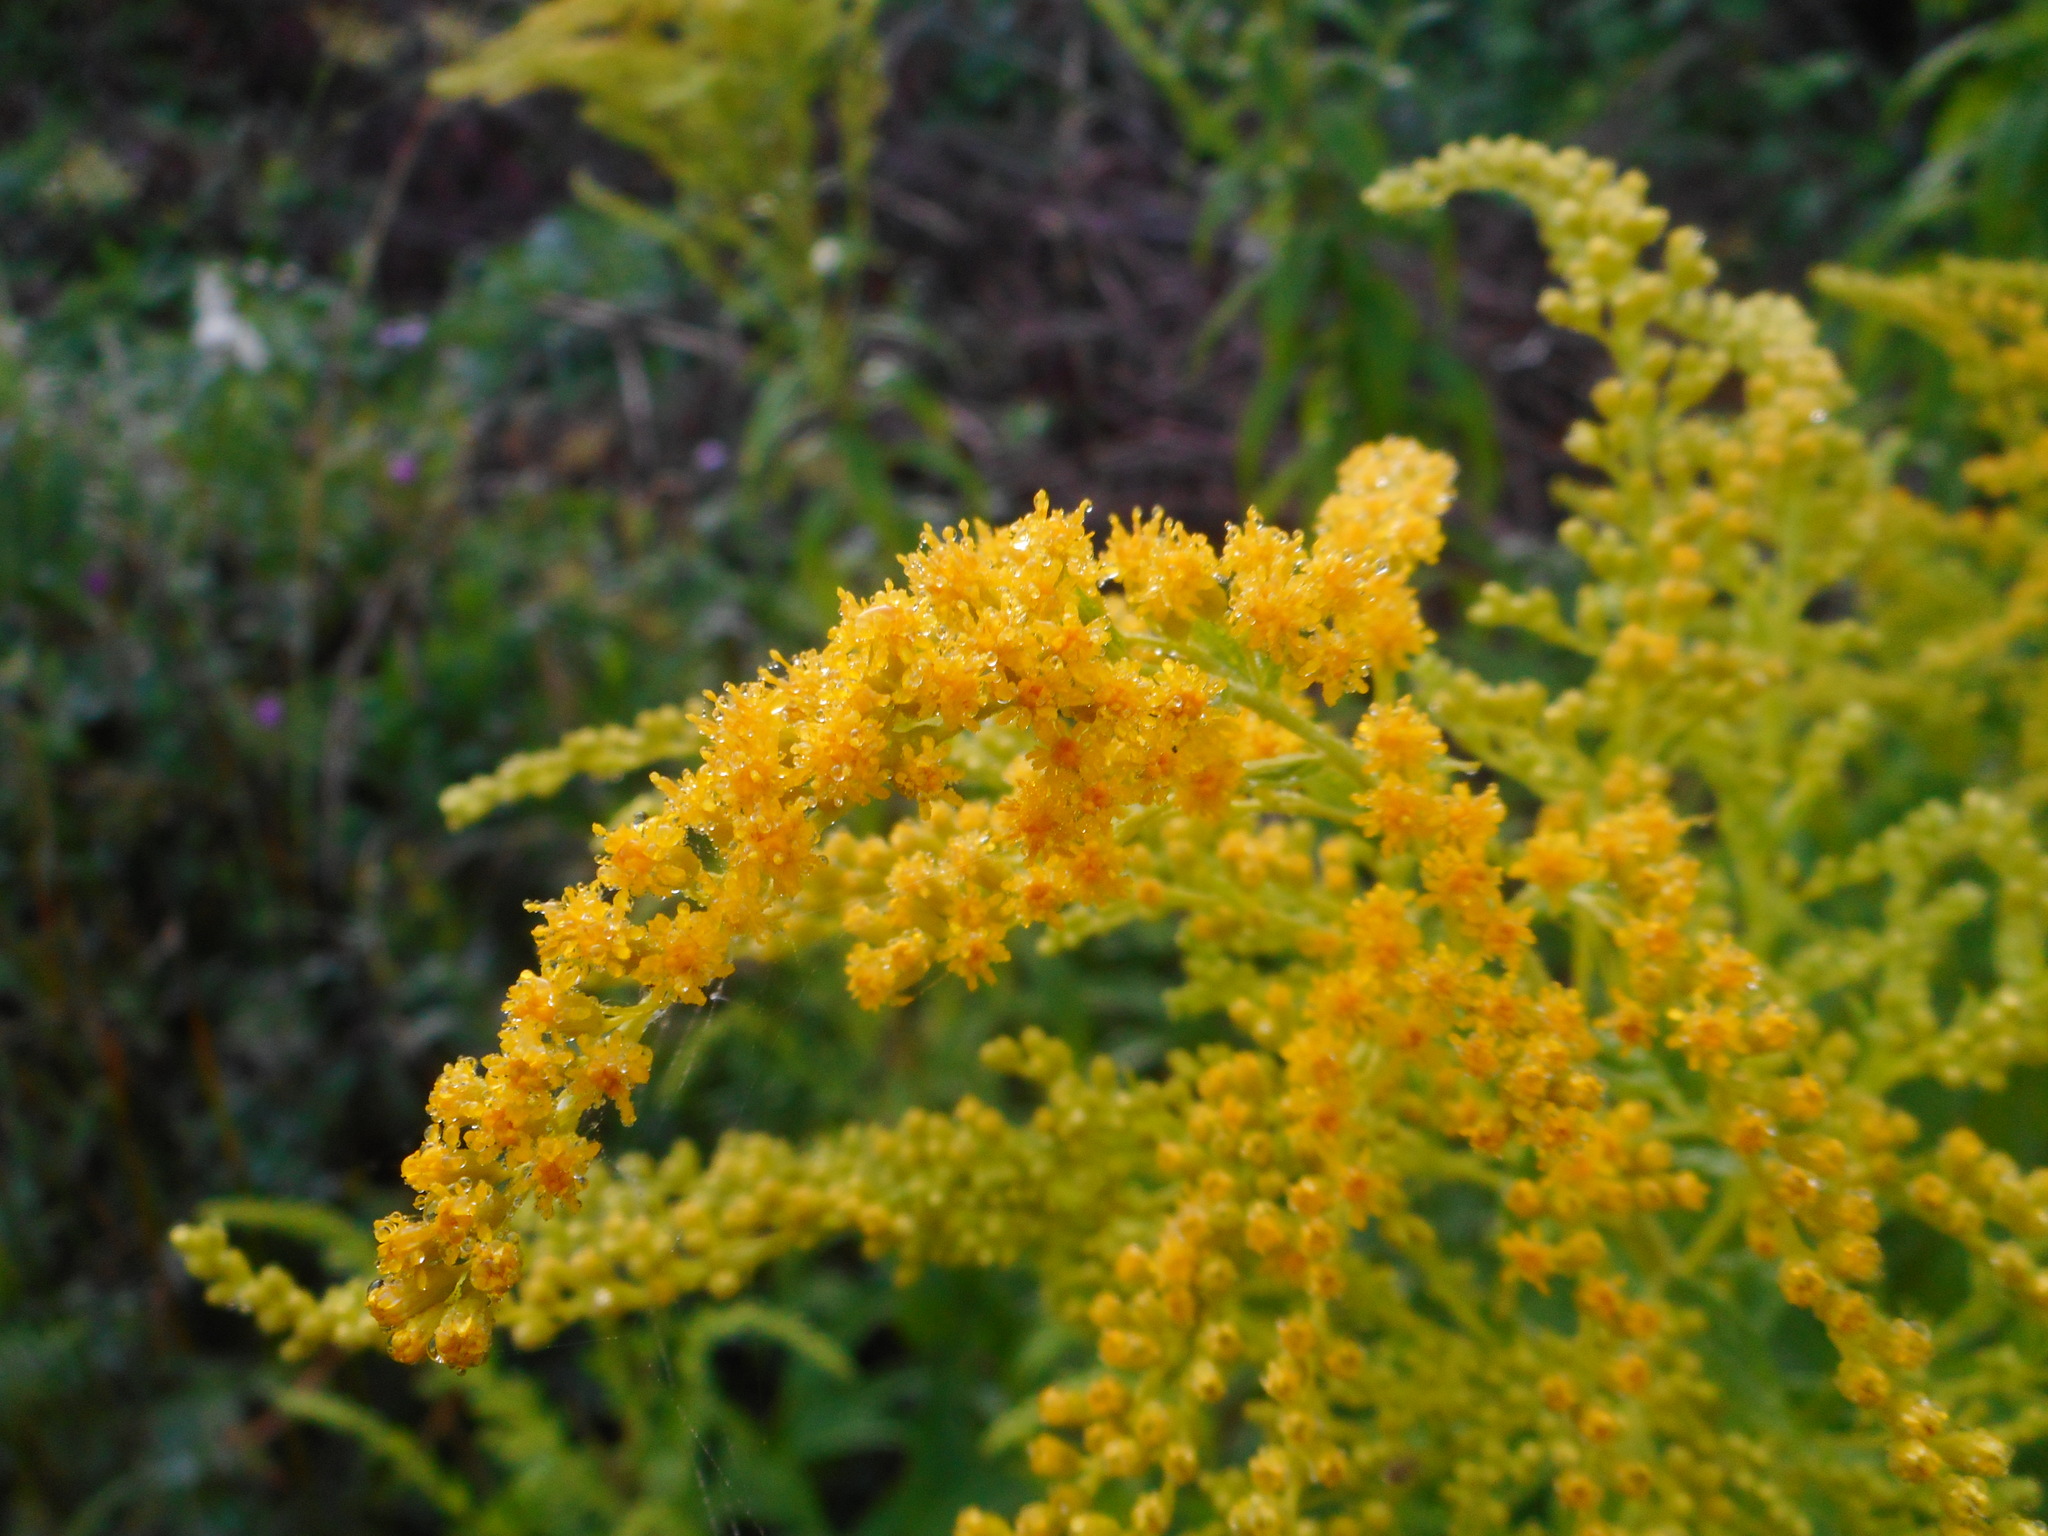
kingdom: Plantae
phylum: Tracheophyta
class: Magnoliopsida
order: Asterales
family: Asteraceae
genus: Solidago
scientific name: Solidago canadensis
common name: Canada goldenrod
